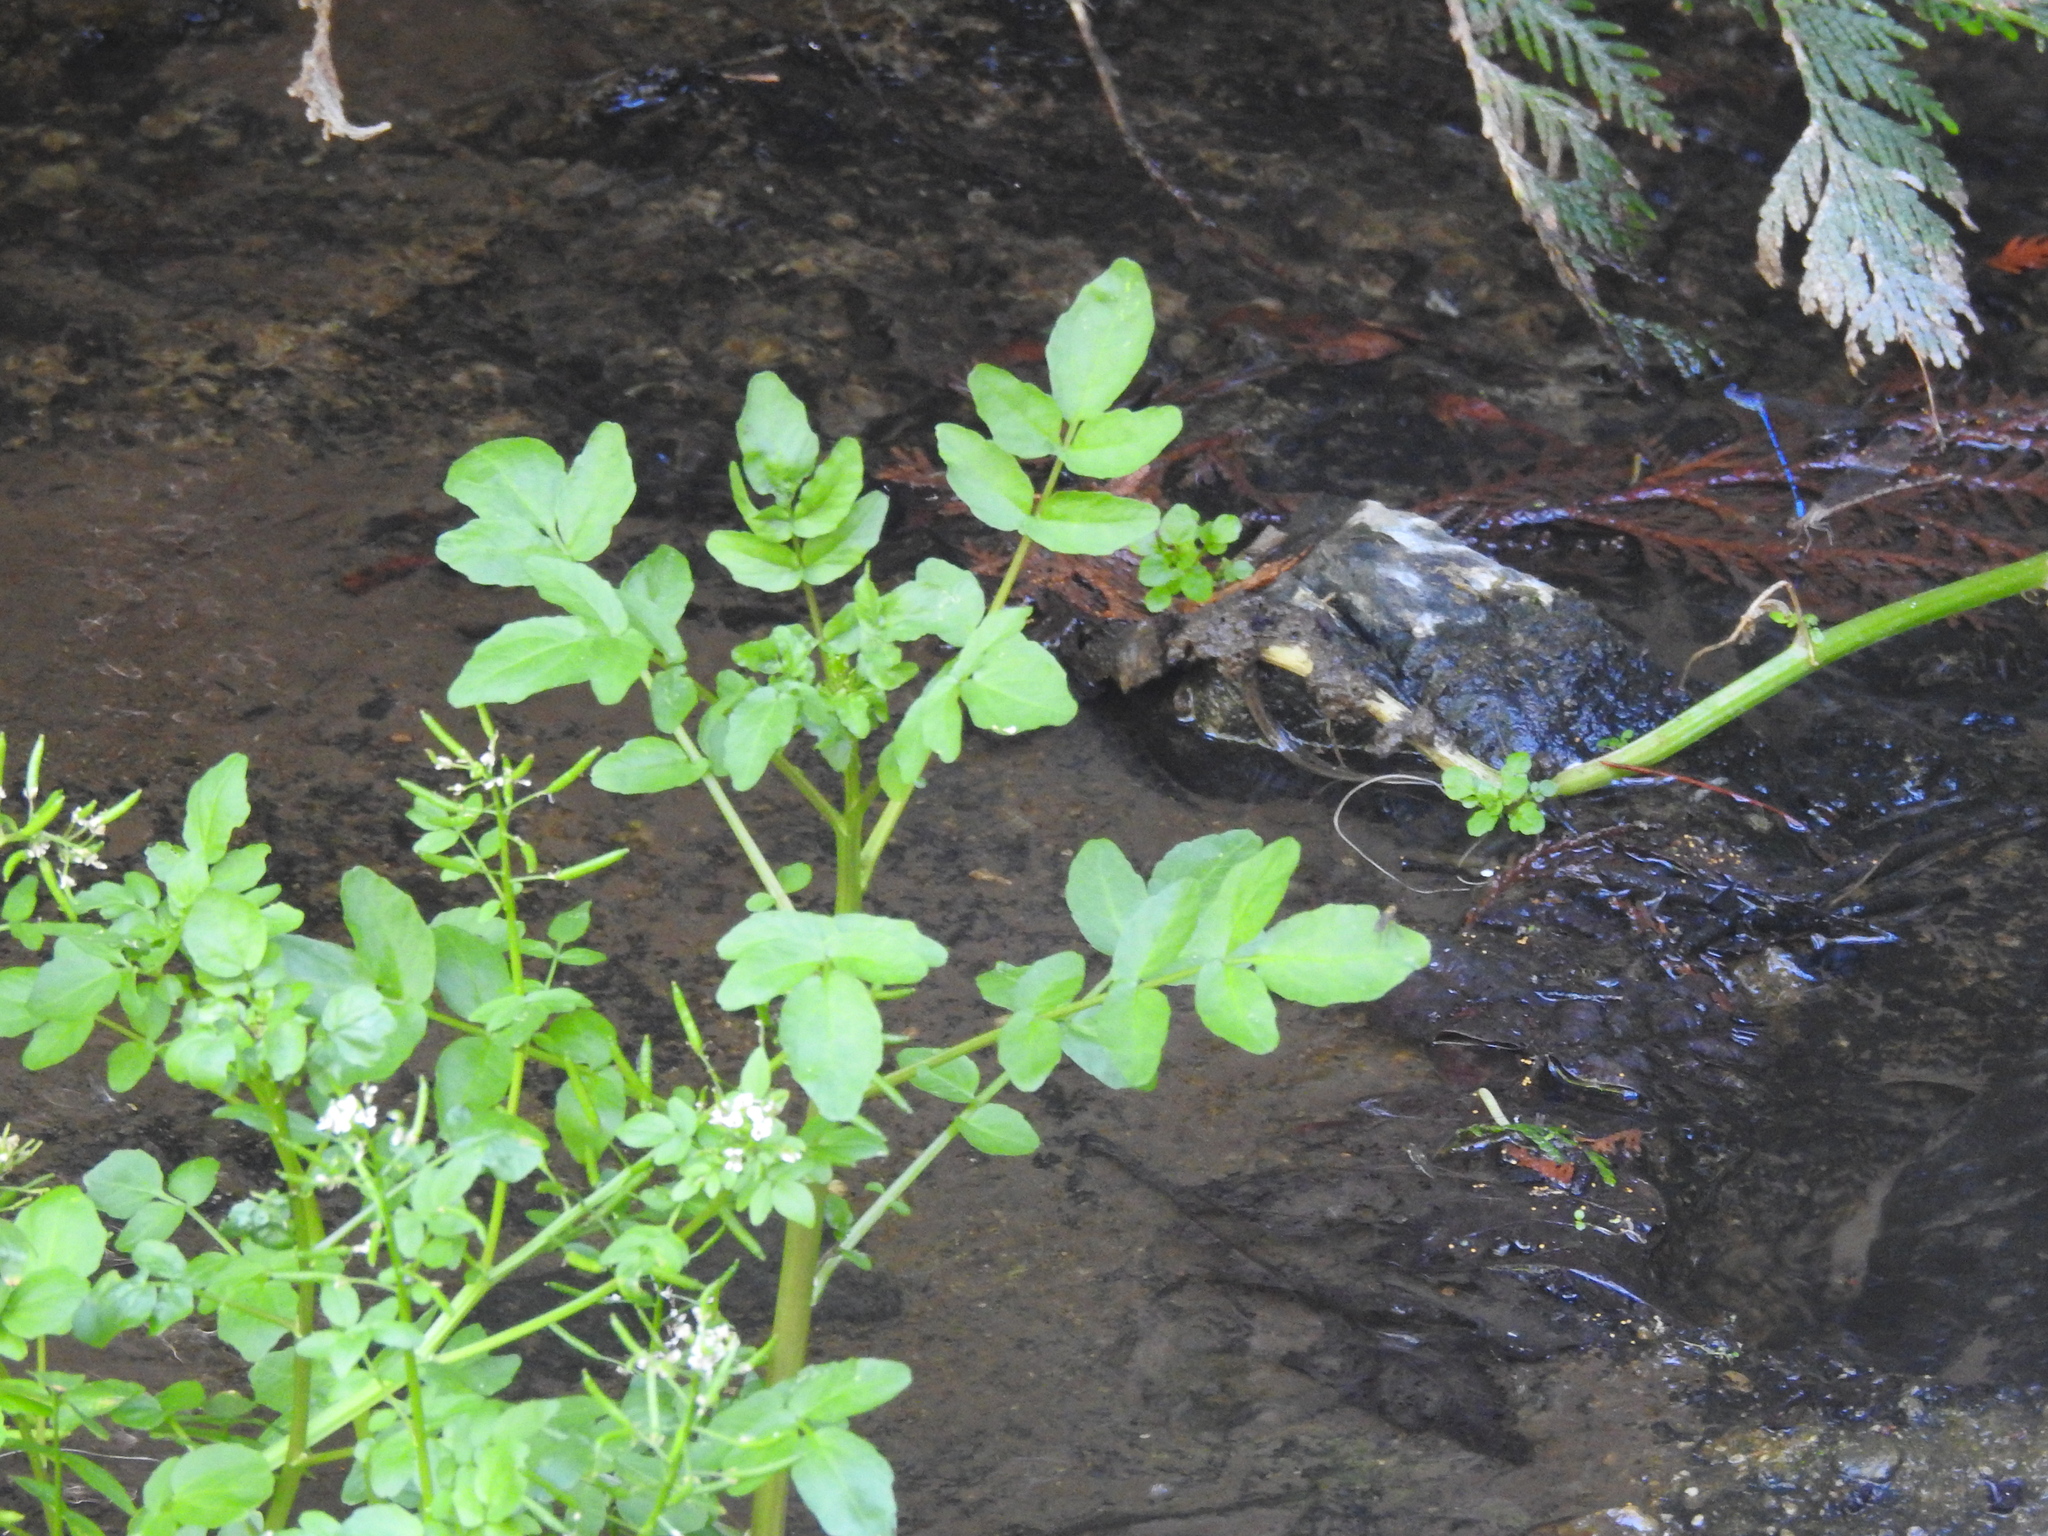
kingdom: Plantae
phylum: Tracheophyta
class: Magnoliopsida
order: Brassicales
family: Brassicaceae
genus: Nasturtium
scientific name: Nasturtium officinale
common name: Watercress
